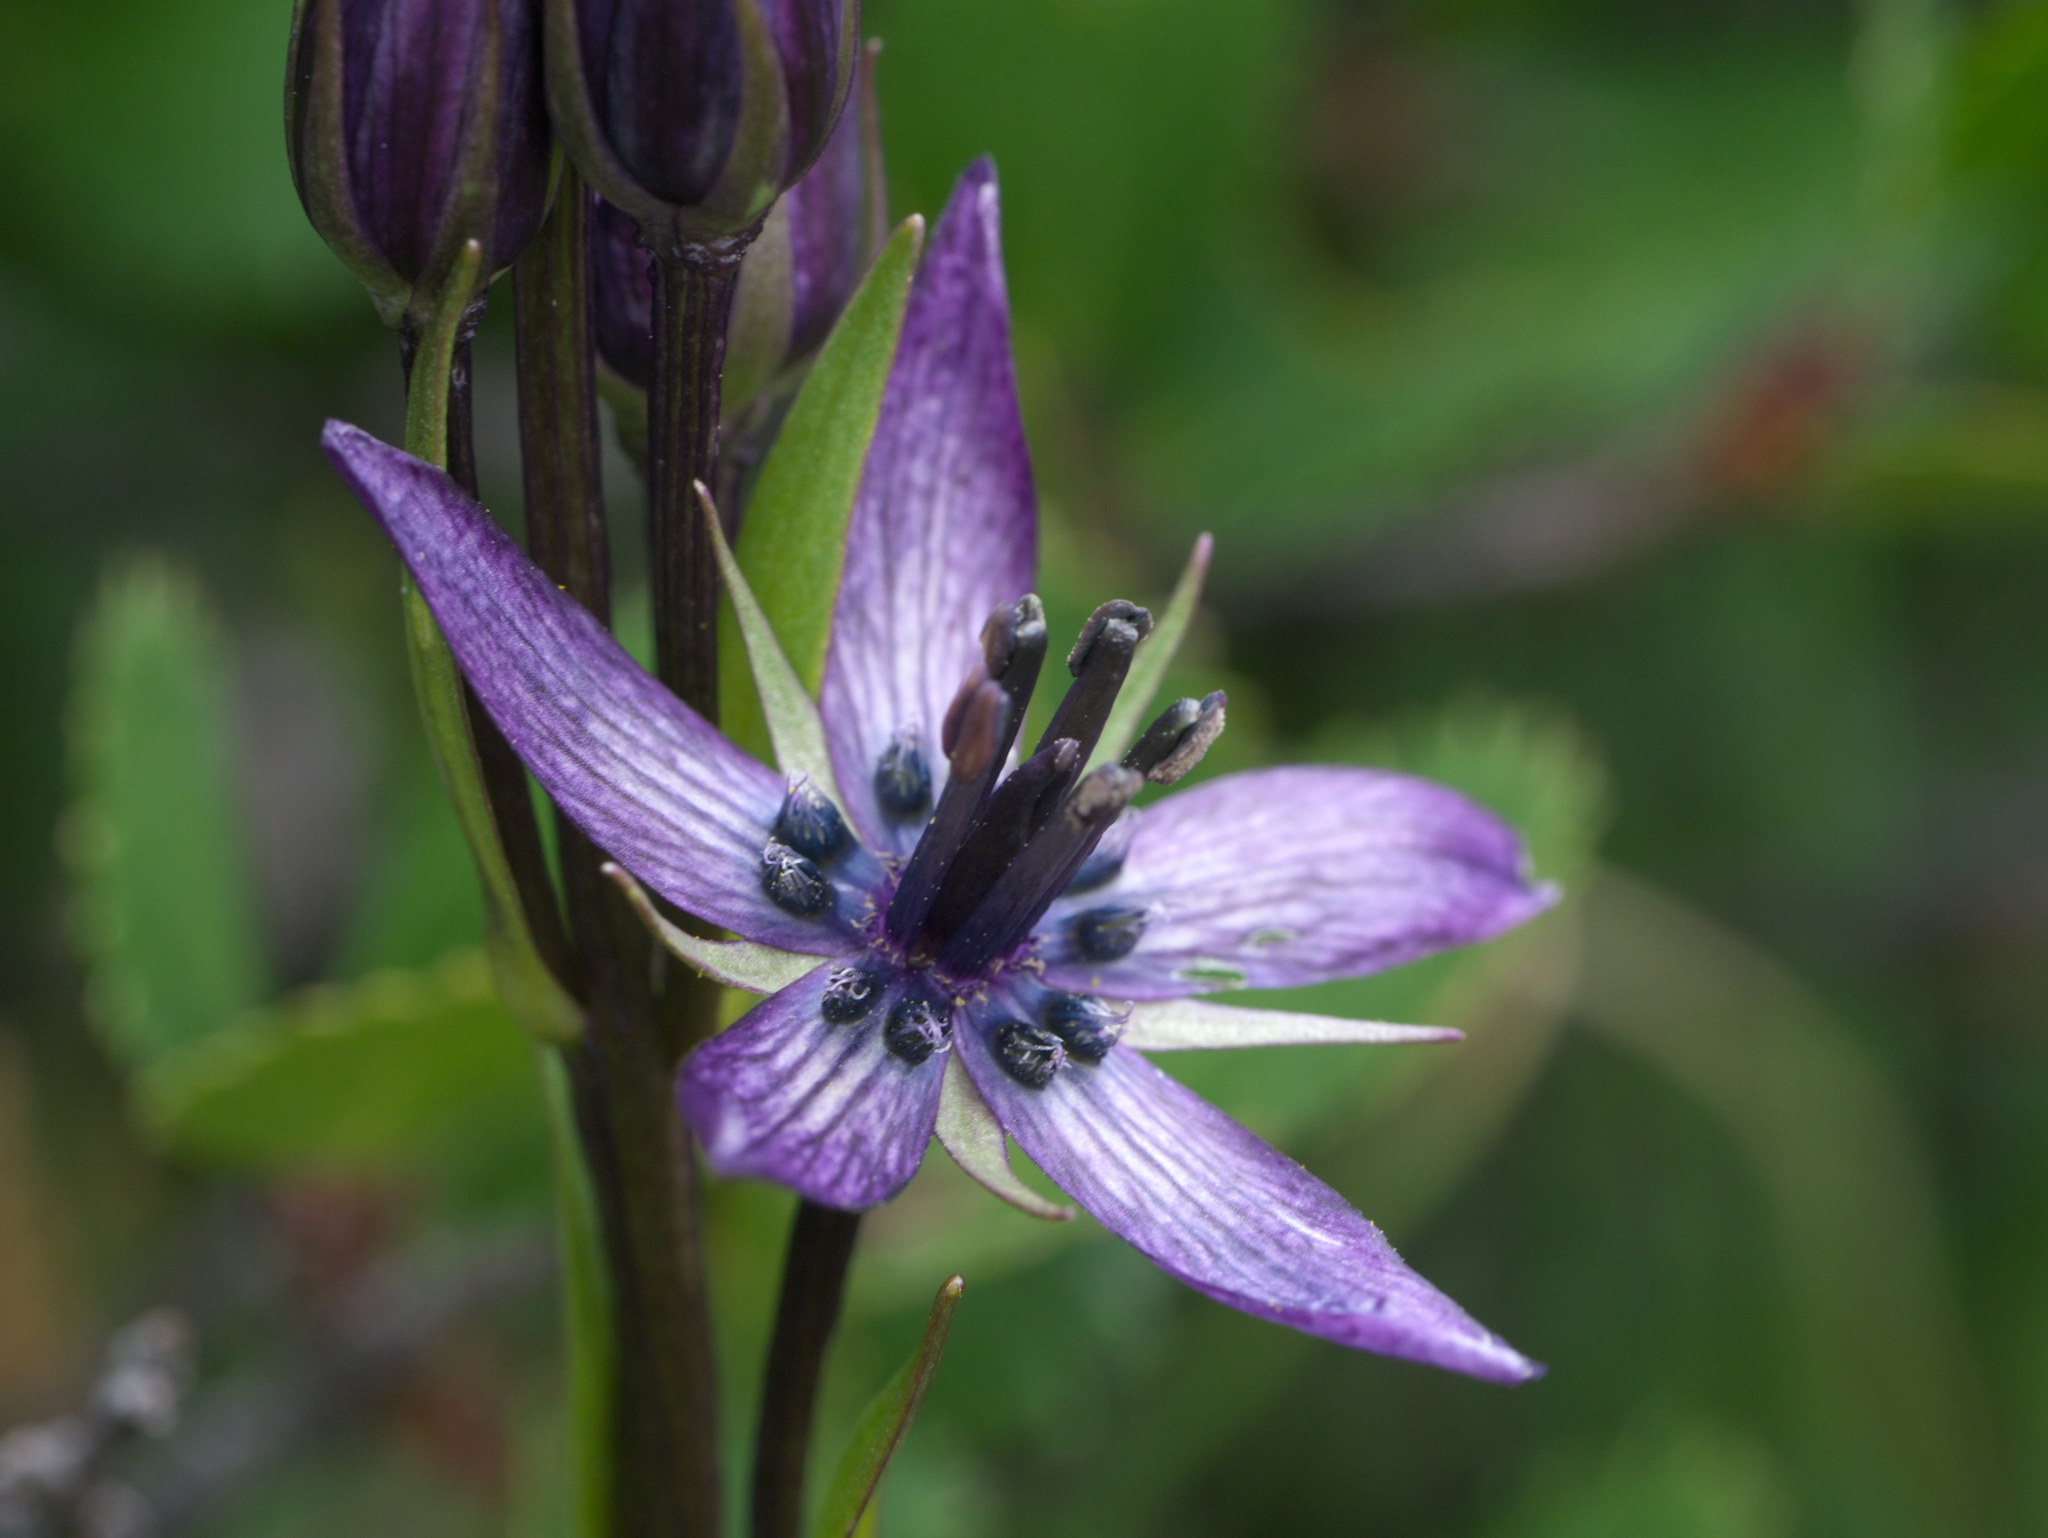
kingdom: Plantae
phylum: Tracheophyta
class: Magnoliopsida
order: Gentianales
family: Gentianaceae
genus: Swertia
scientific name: Swertia perennis
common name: Alpine bog swertia
